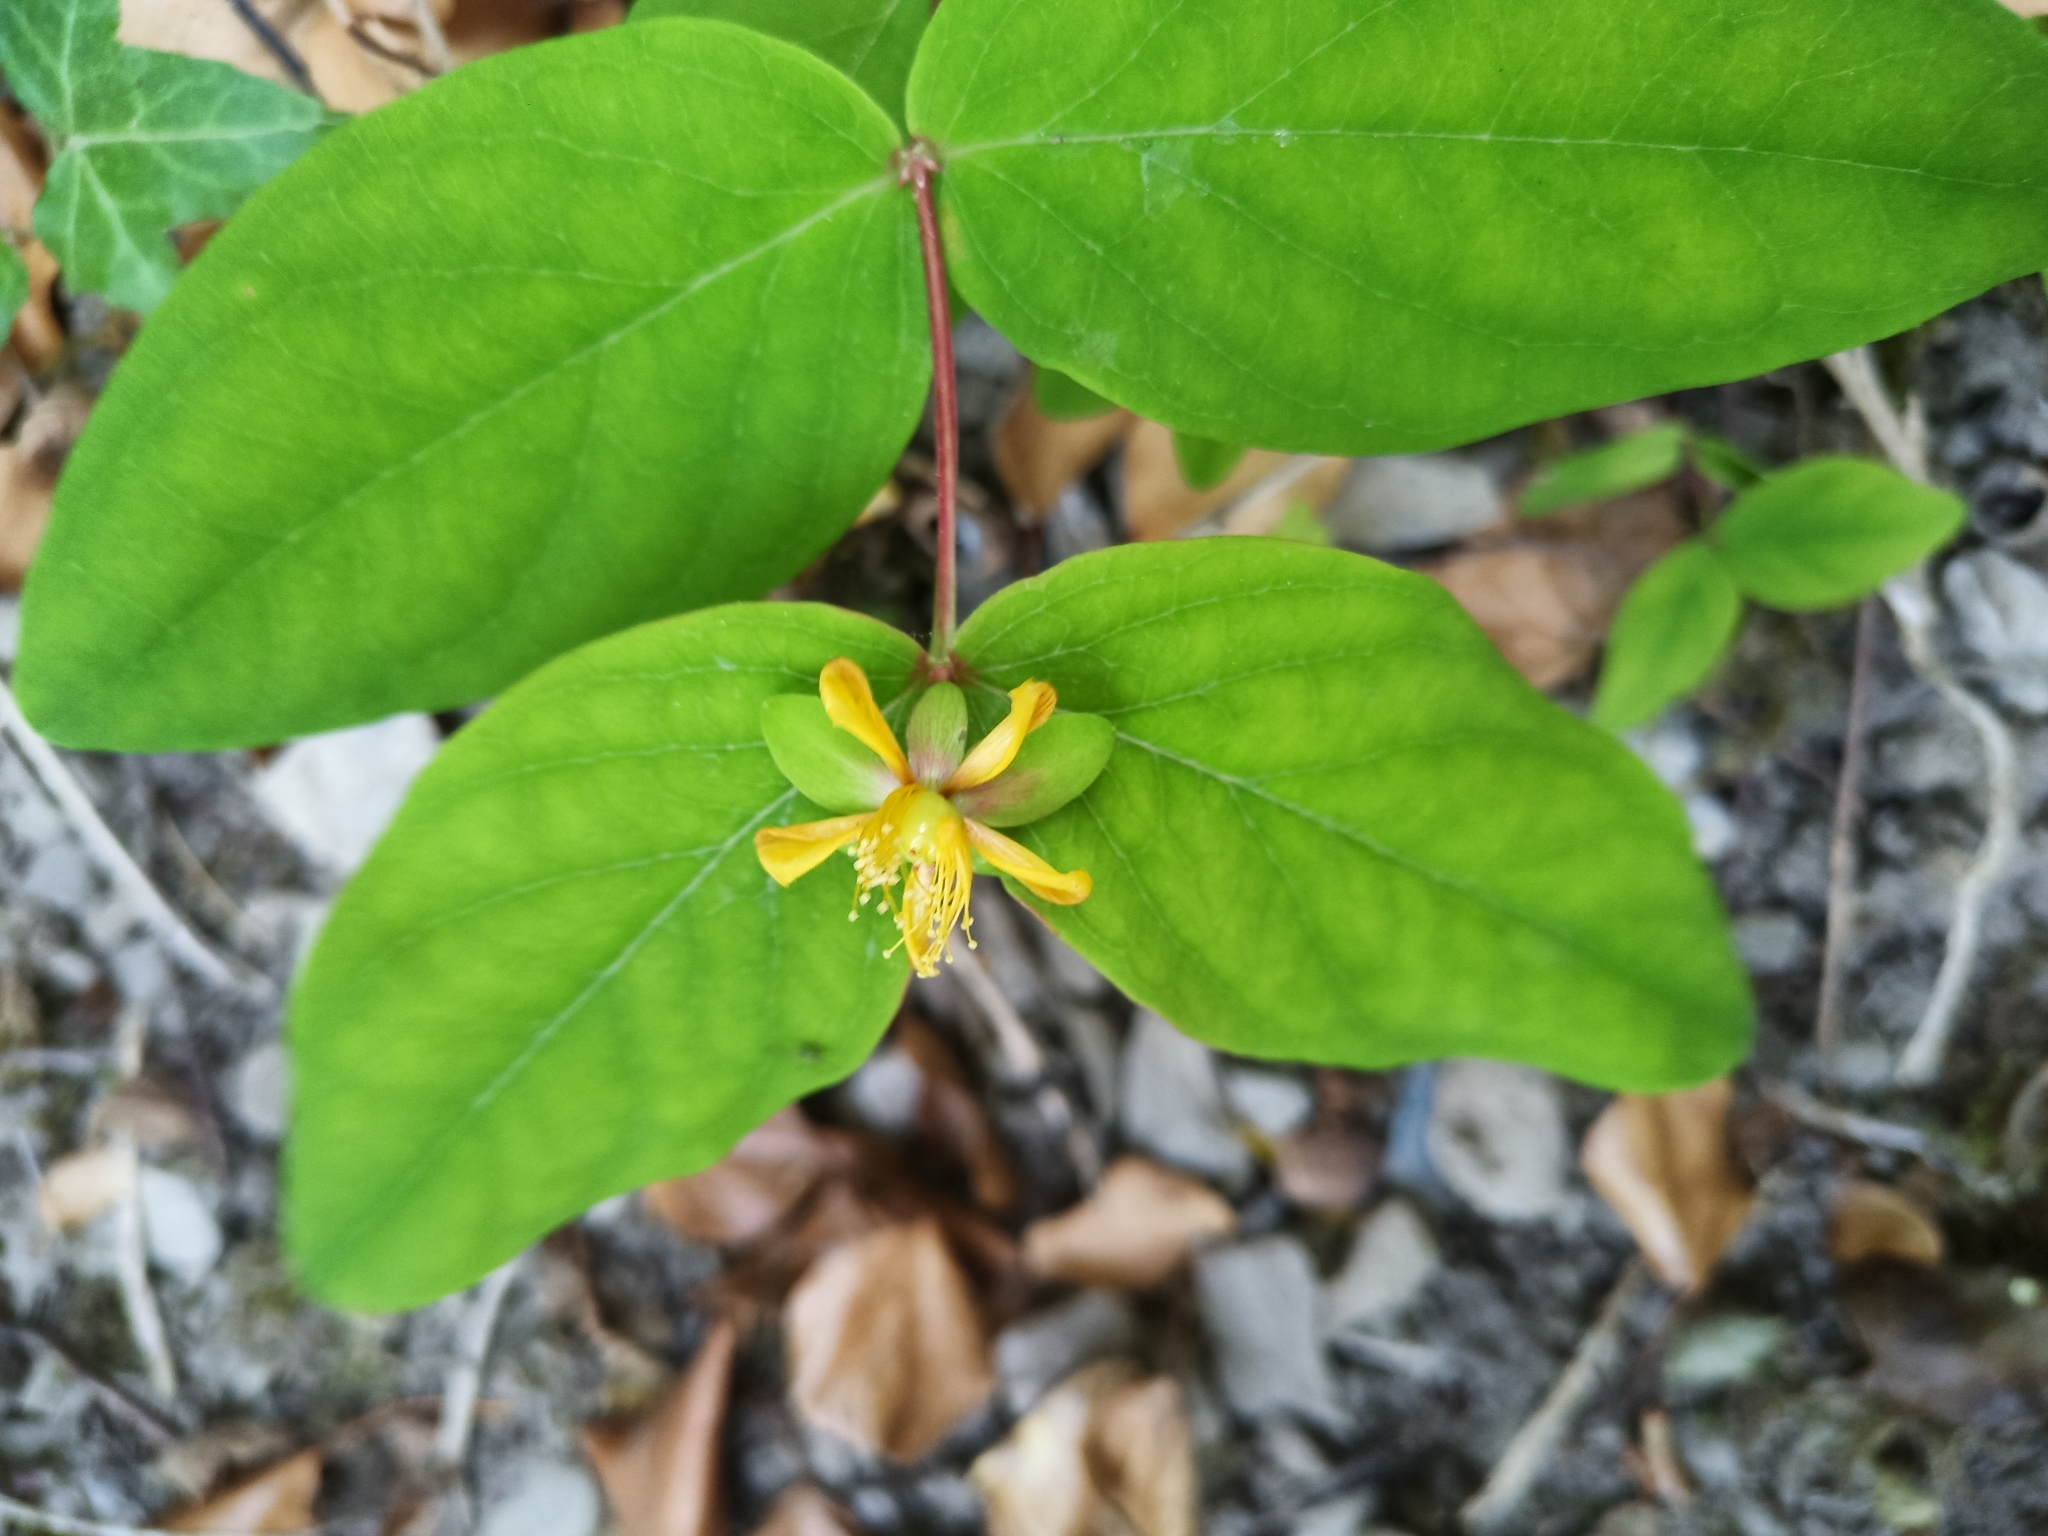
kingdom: Plantae
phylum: Tracheophyta
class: Magnoliopsida
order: Malpighiales
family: Hypericaceae
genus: Hypericum
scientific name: Hypericum androsaemum
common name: Sweet-amber
